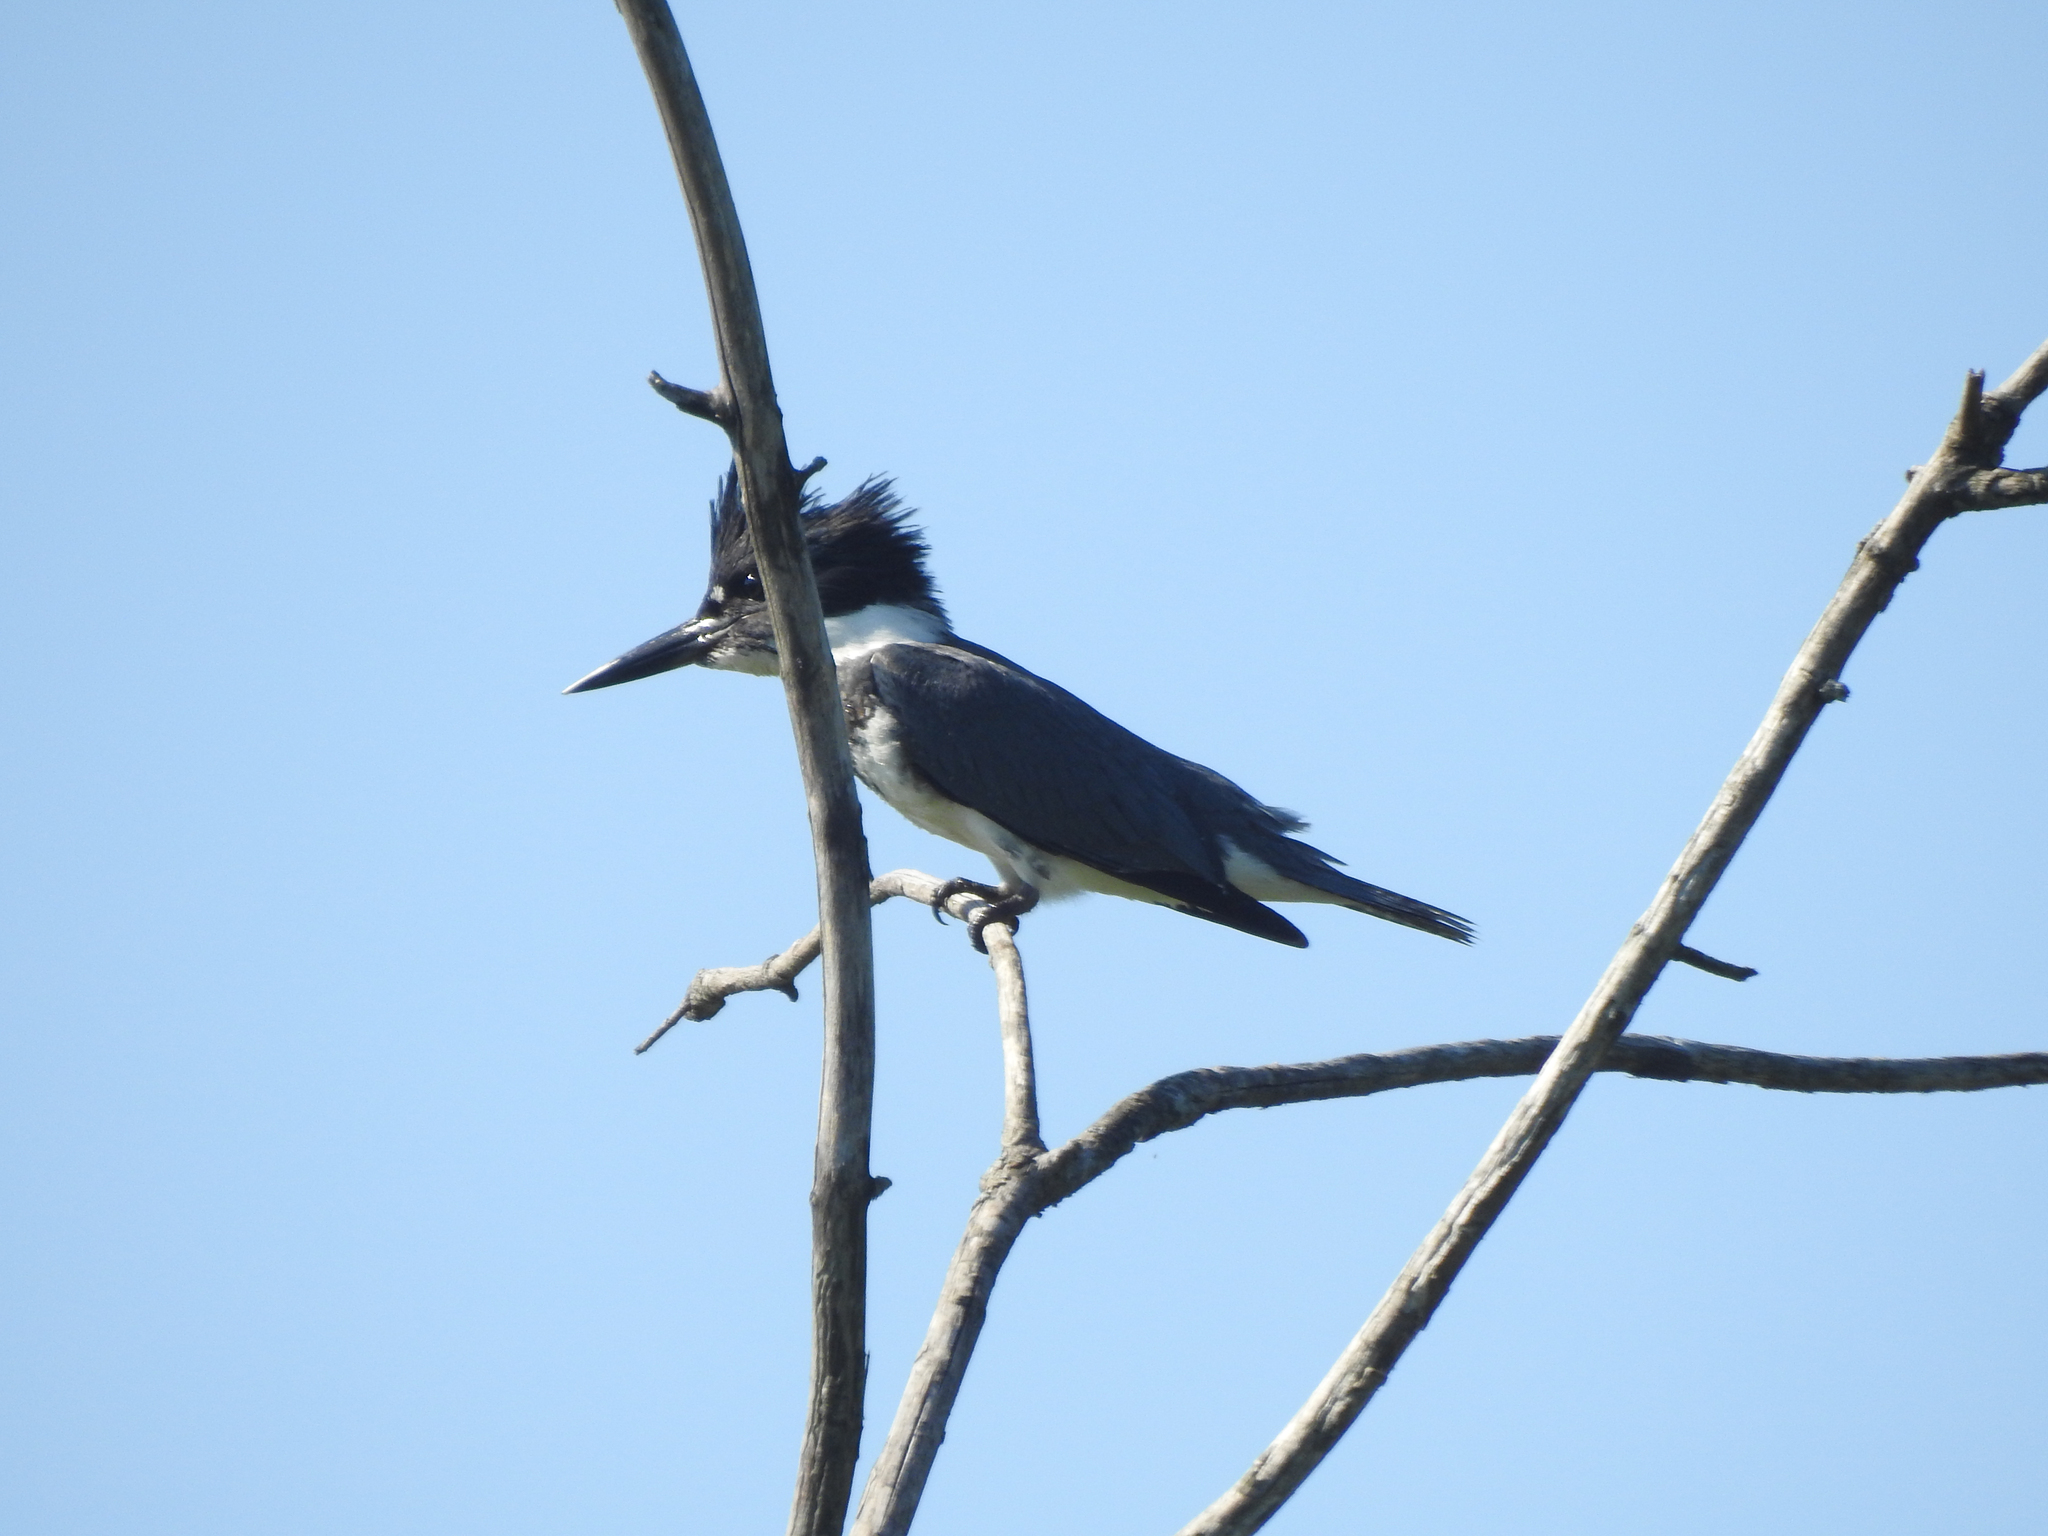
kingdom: Animalia
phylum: Chordata
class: Aves
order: Coraciiformes
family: Alcedinidae
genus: Megaceryle
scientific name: Megaceryle alcyon
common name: Belted kingfisher
